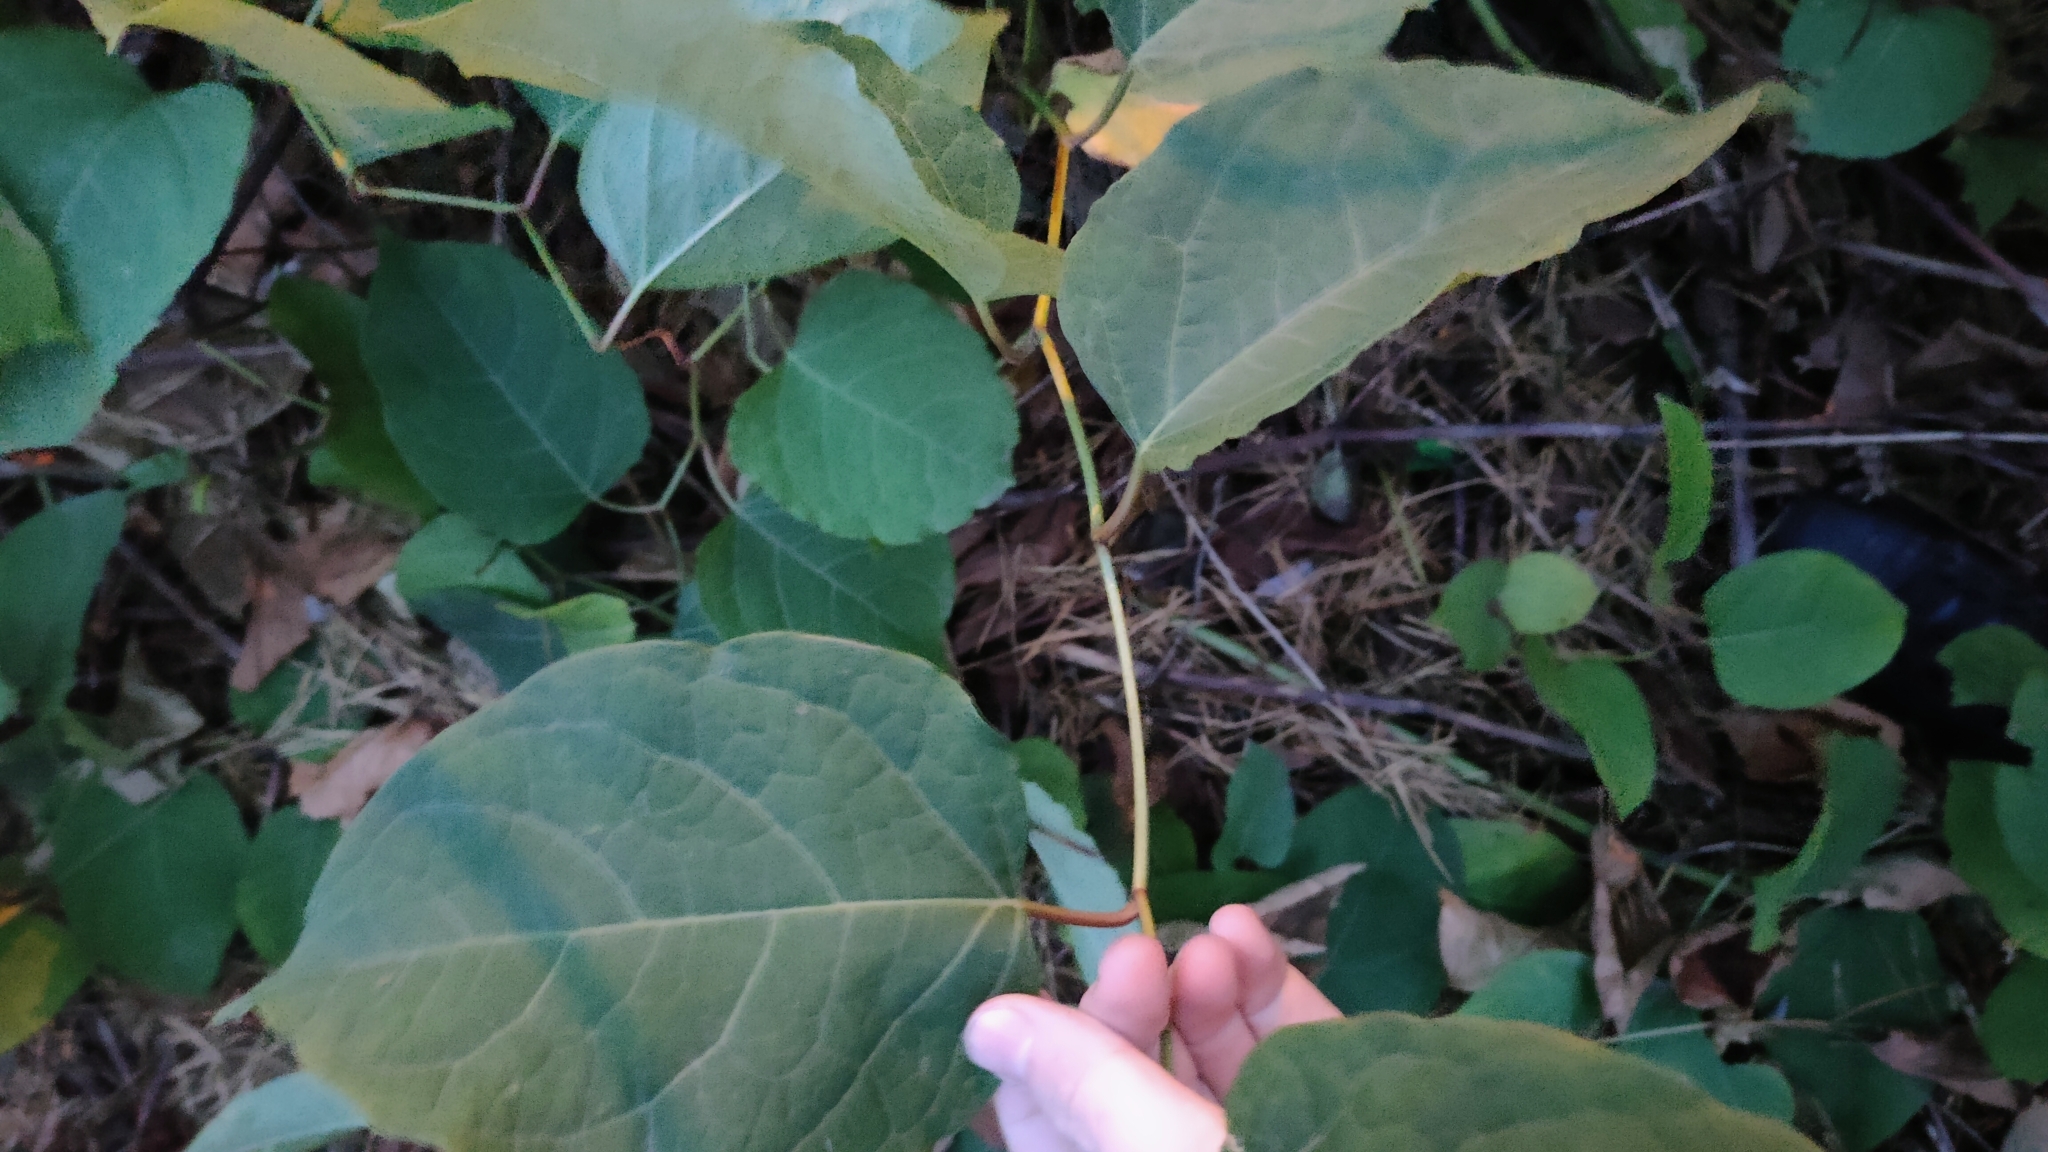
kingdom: Plantae
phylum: Tracheophyta
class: Magnoliopsida
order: Caryophyllales
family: Polygonaceae
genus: Reynoutria
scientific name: Reynoutria bohemica
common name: Bohemian knotweed
